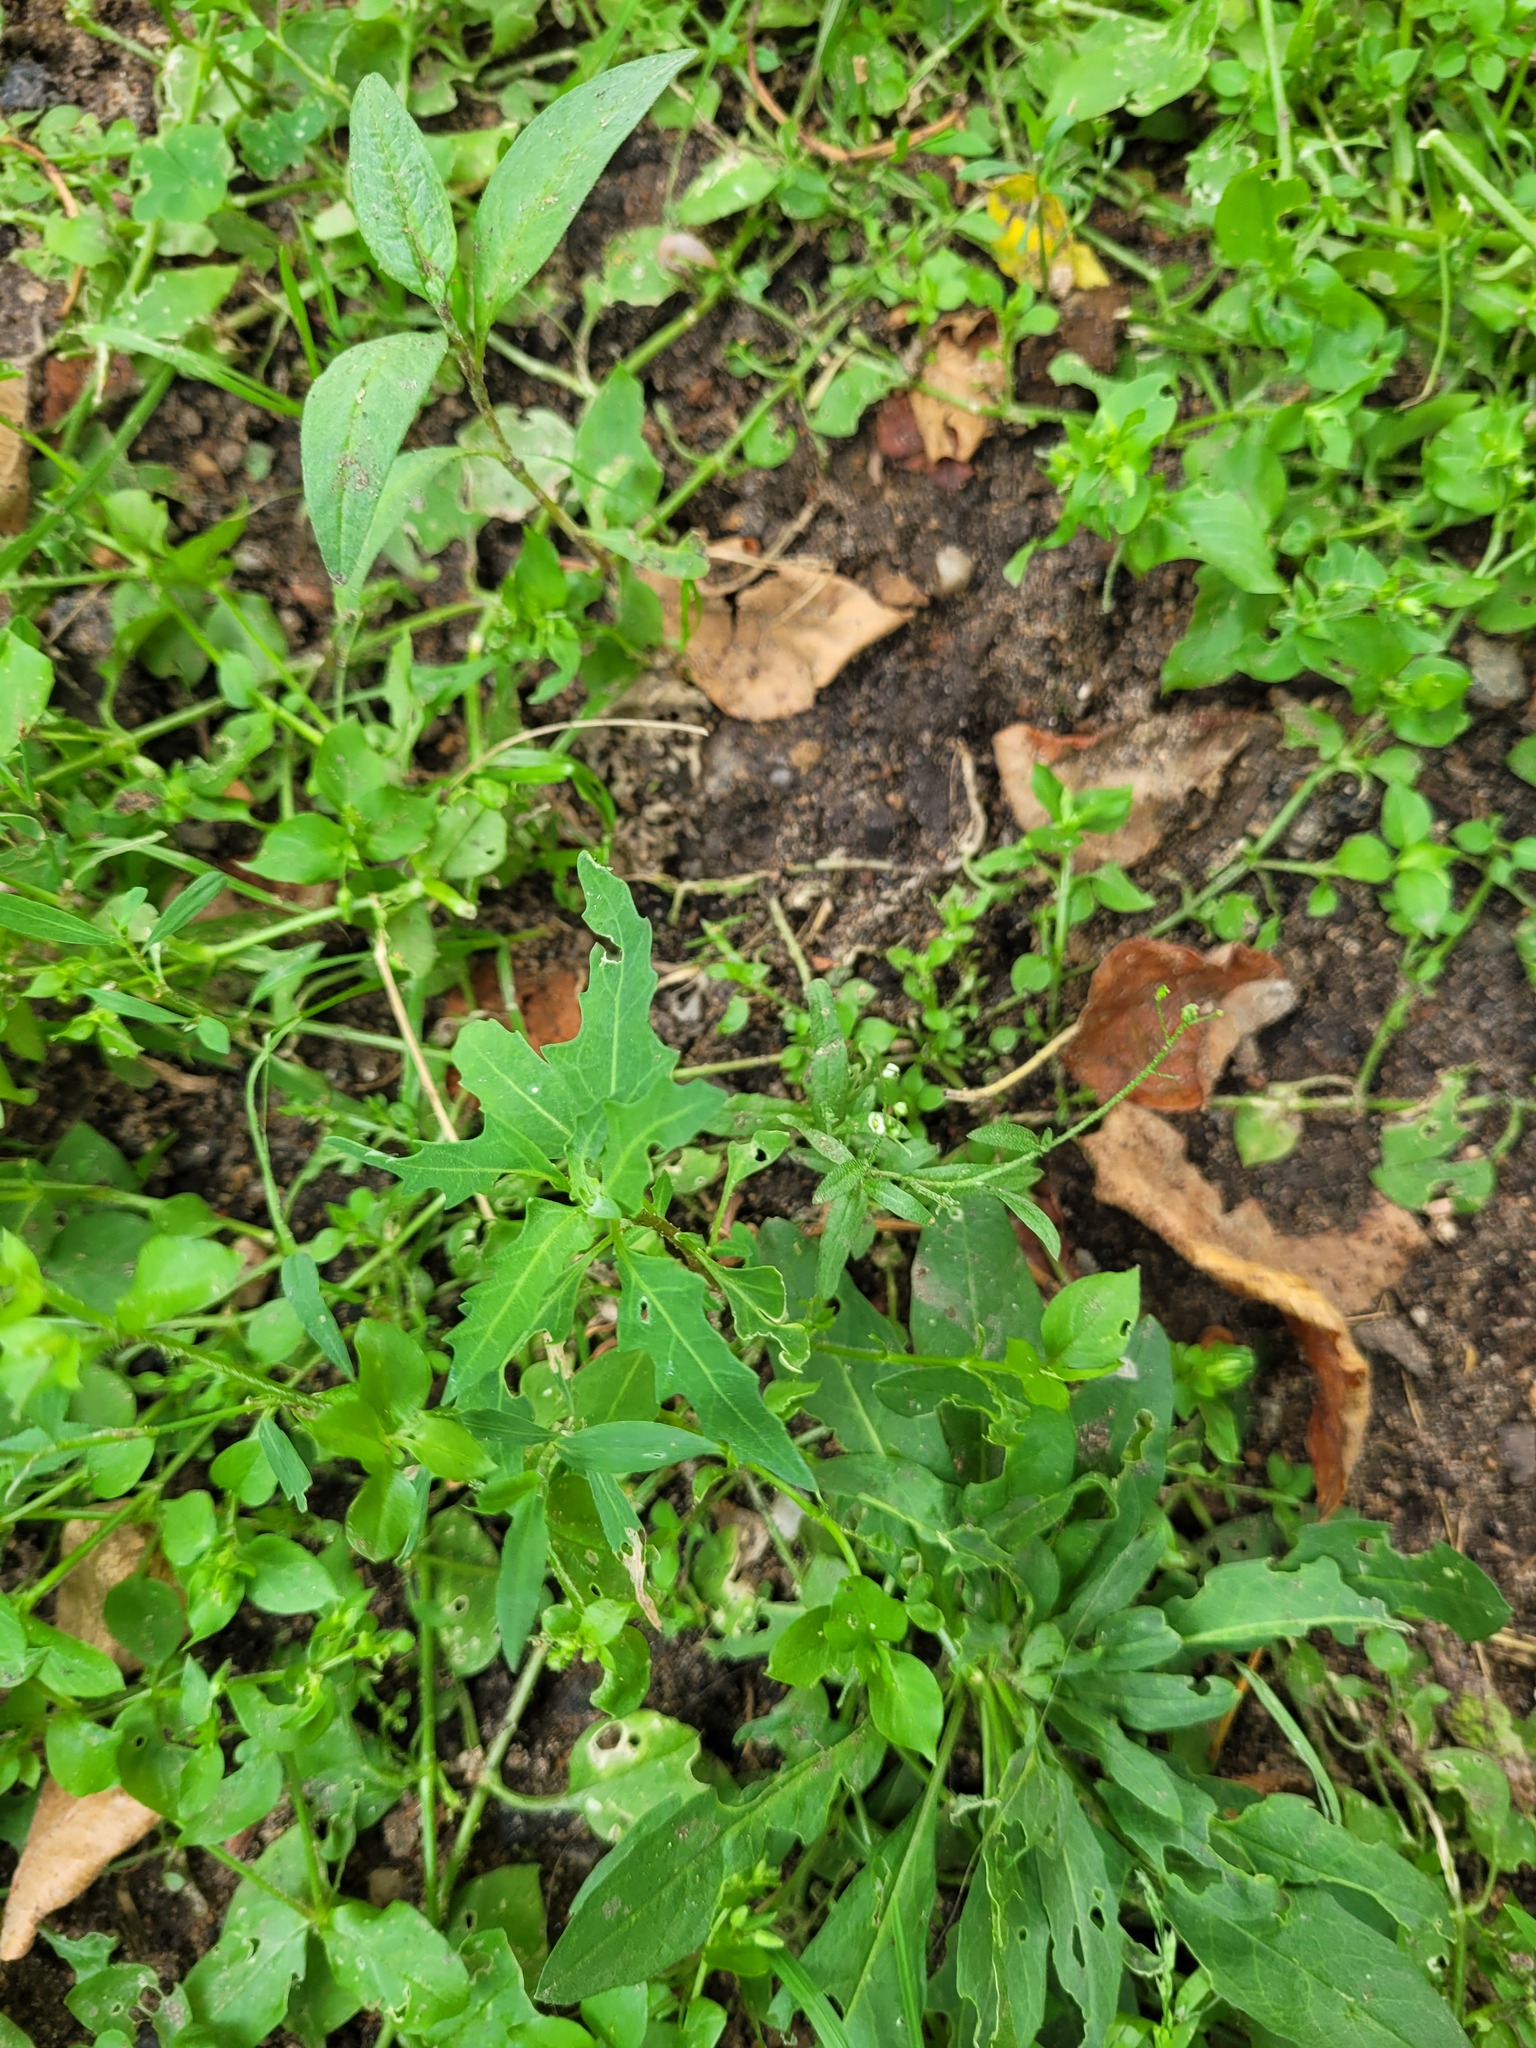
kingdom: Plantae
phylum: Tracheophyta
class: Magnoliopsida
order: Caryophyllales
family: Amaranthaceae
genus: Oxybasis
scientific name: Oxybasis glauca
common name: Glaucous goosefoot
